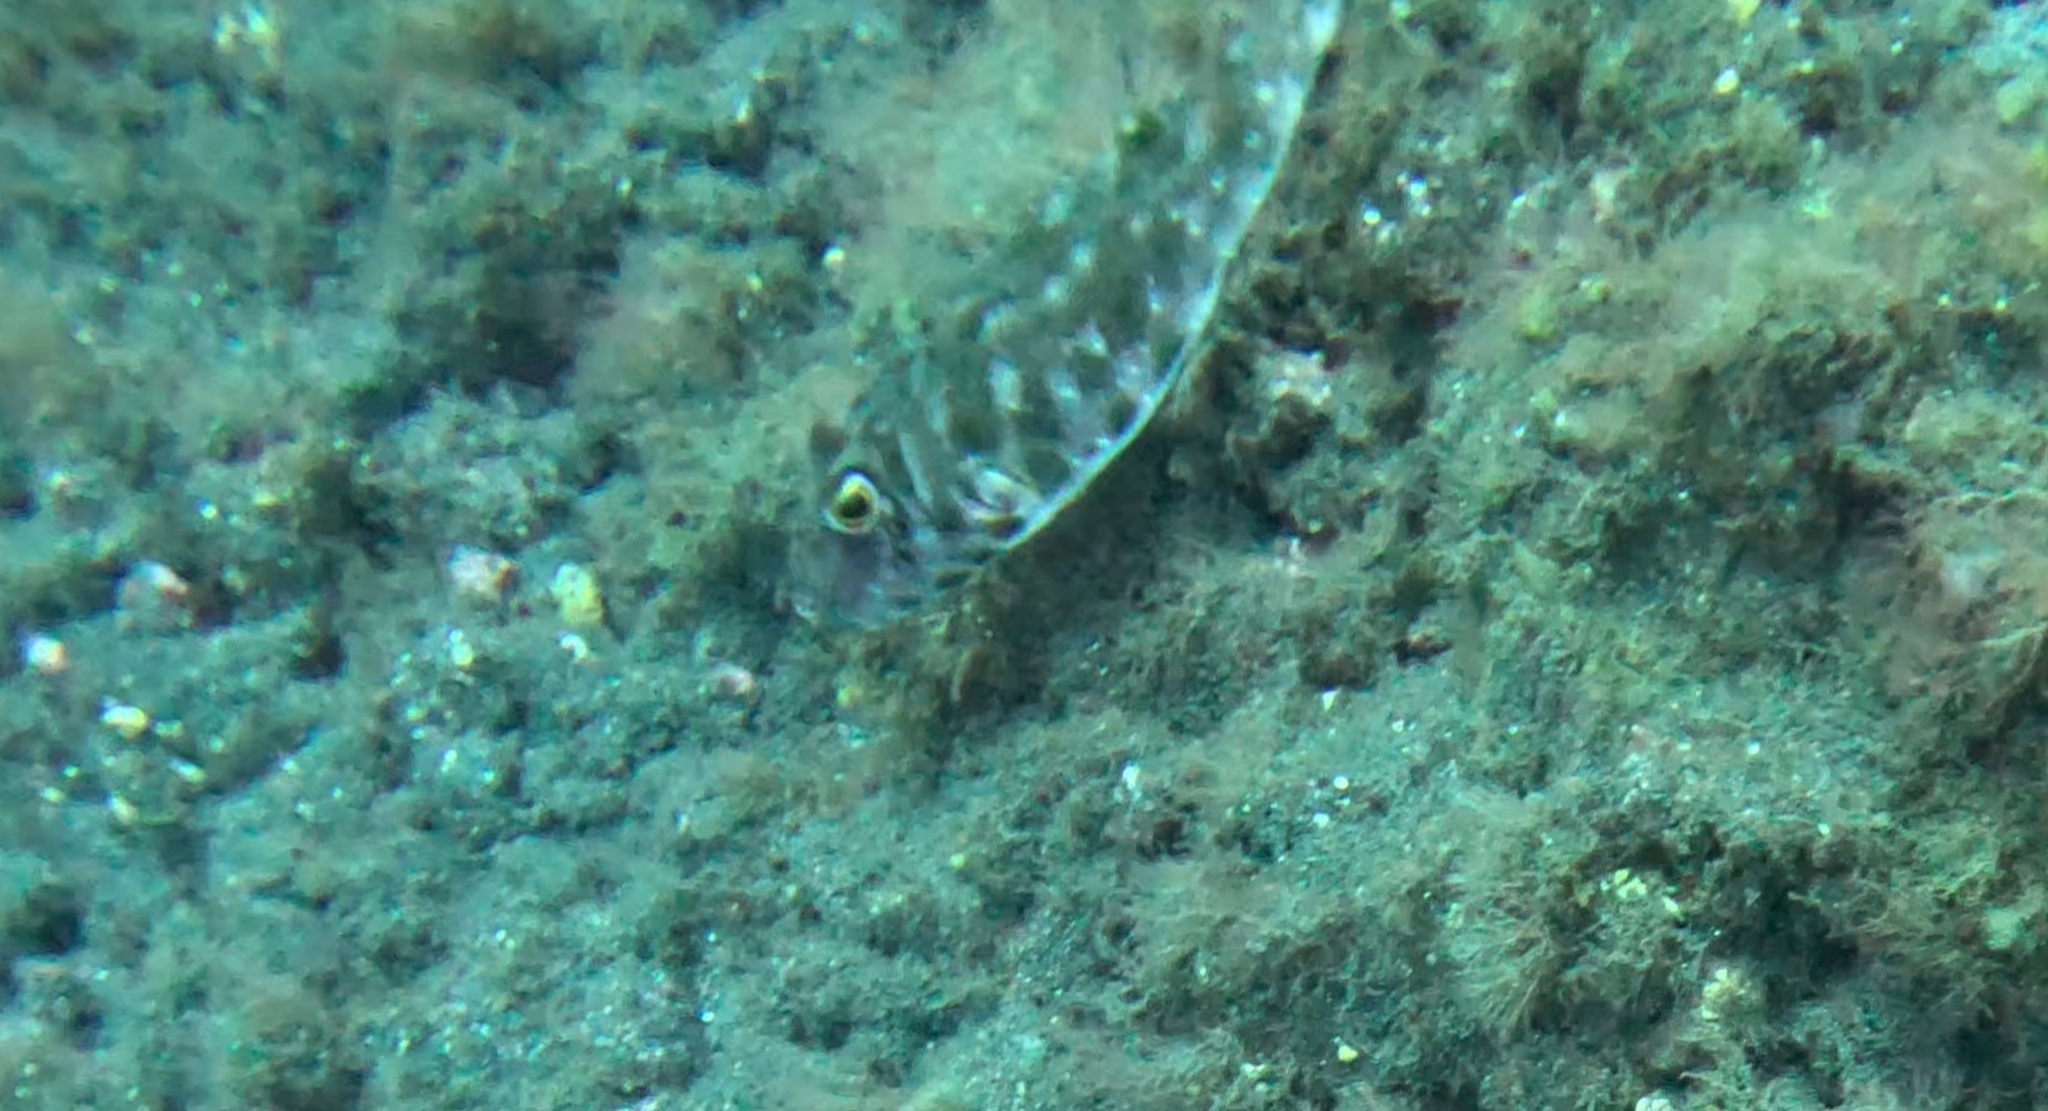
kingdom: Animalia
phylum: Chordata
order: Tetraodontiformes
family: Tetraodontidae
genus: Sphoeroides
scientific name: Sphoeroides marmoratus
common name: Guinean puffer
